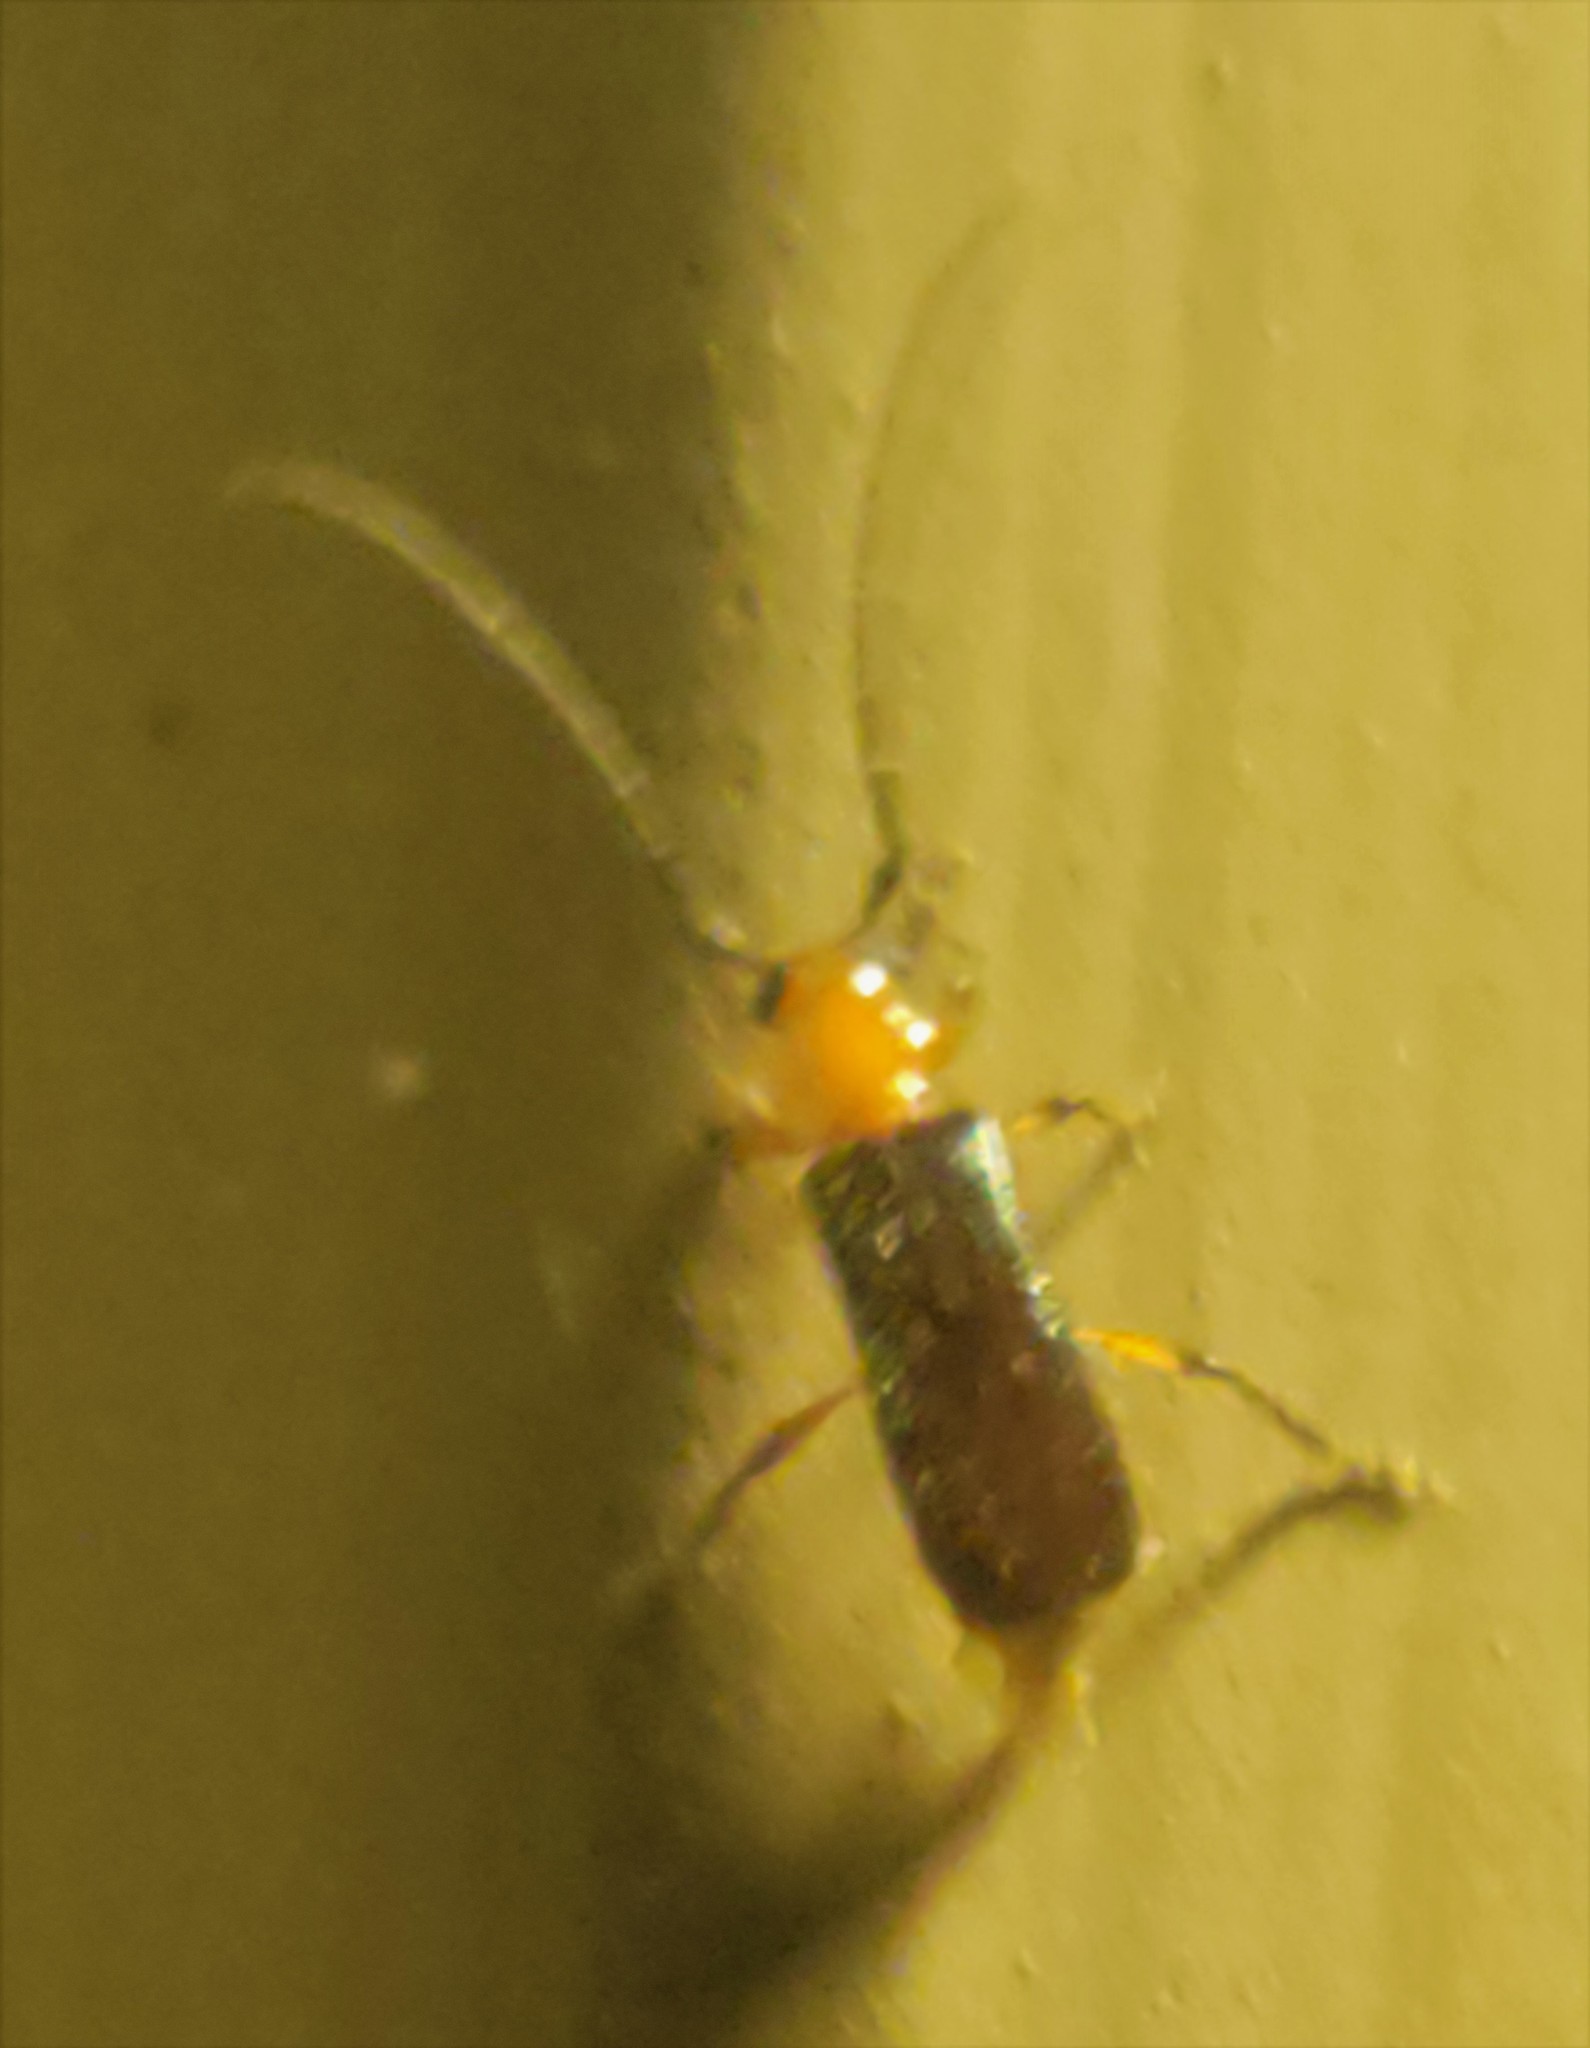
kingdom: Animalia
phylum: Arthropoda
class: Insecta
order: Coleoptera
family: Cerambycidae
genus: Obrium
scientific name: Obrium mozinnae
